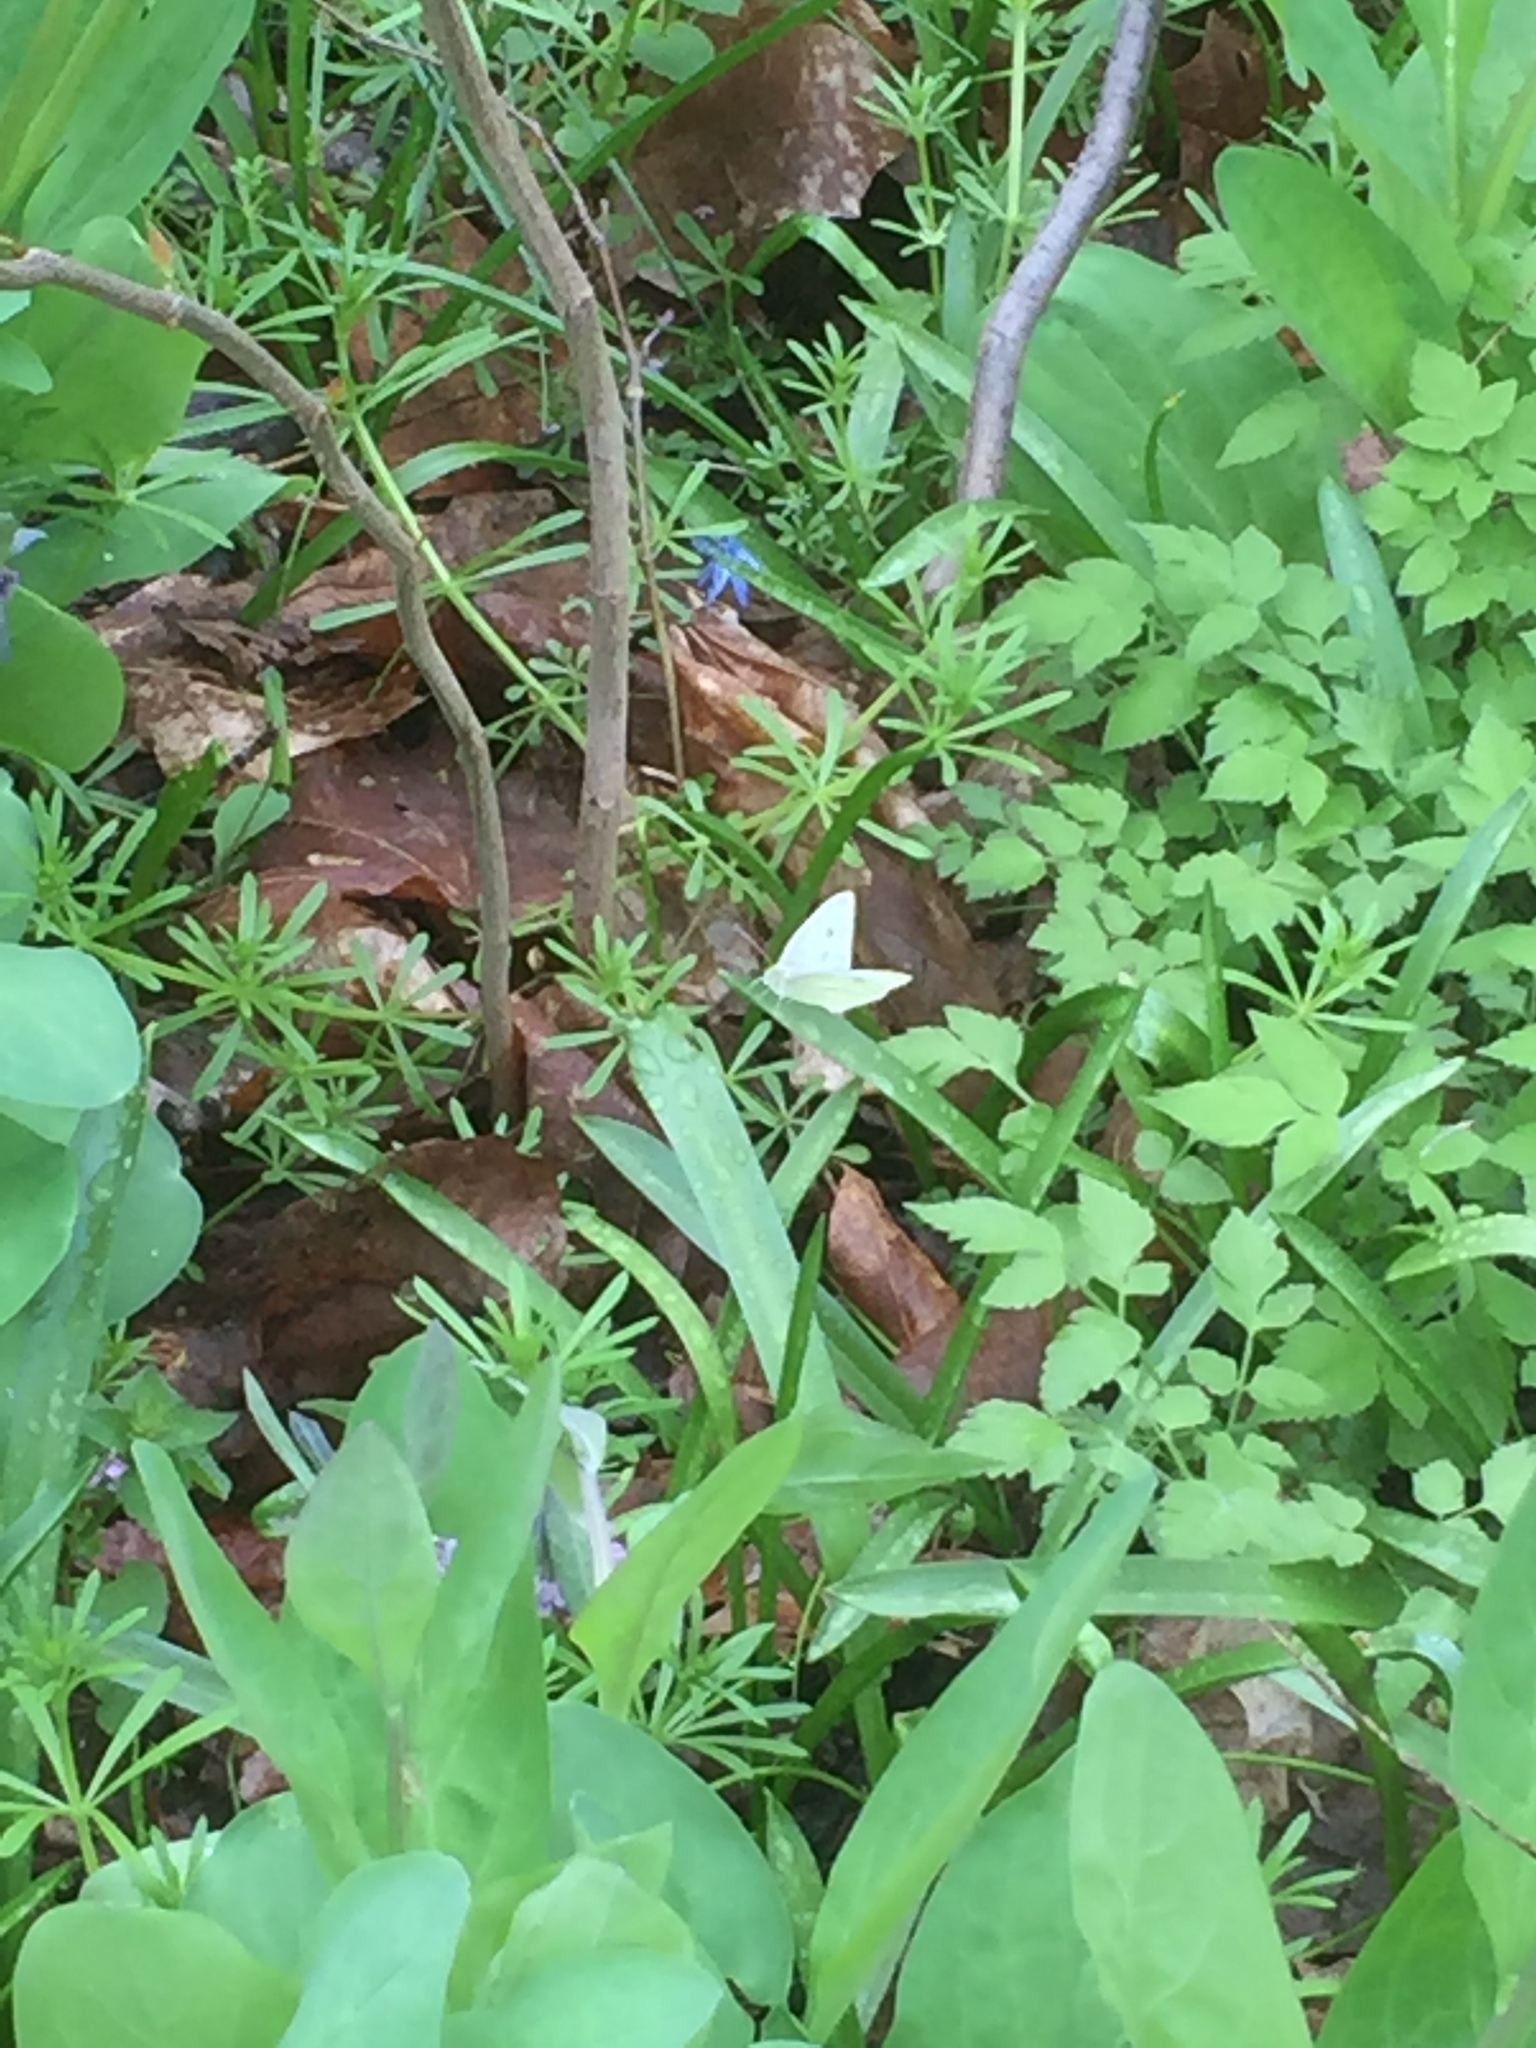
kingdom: Animalia
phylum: Arthropoda
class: Insecta
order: Lepidoptera
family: Pieridae
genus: Pieris
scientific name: Pieris rapae
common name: Small white
